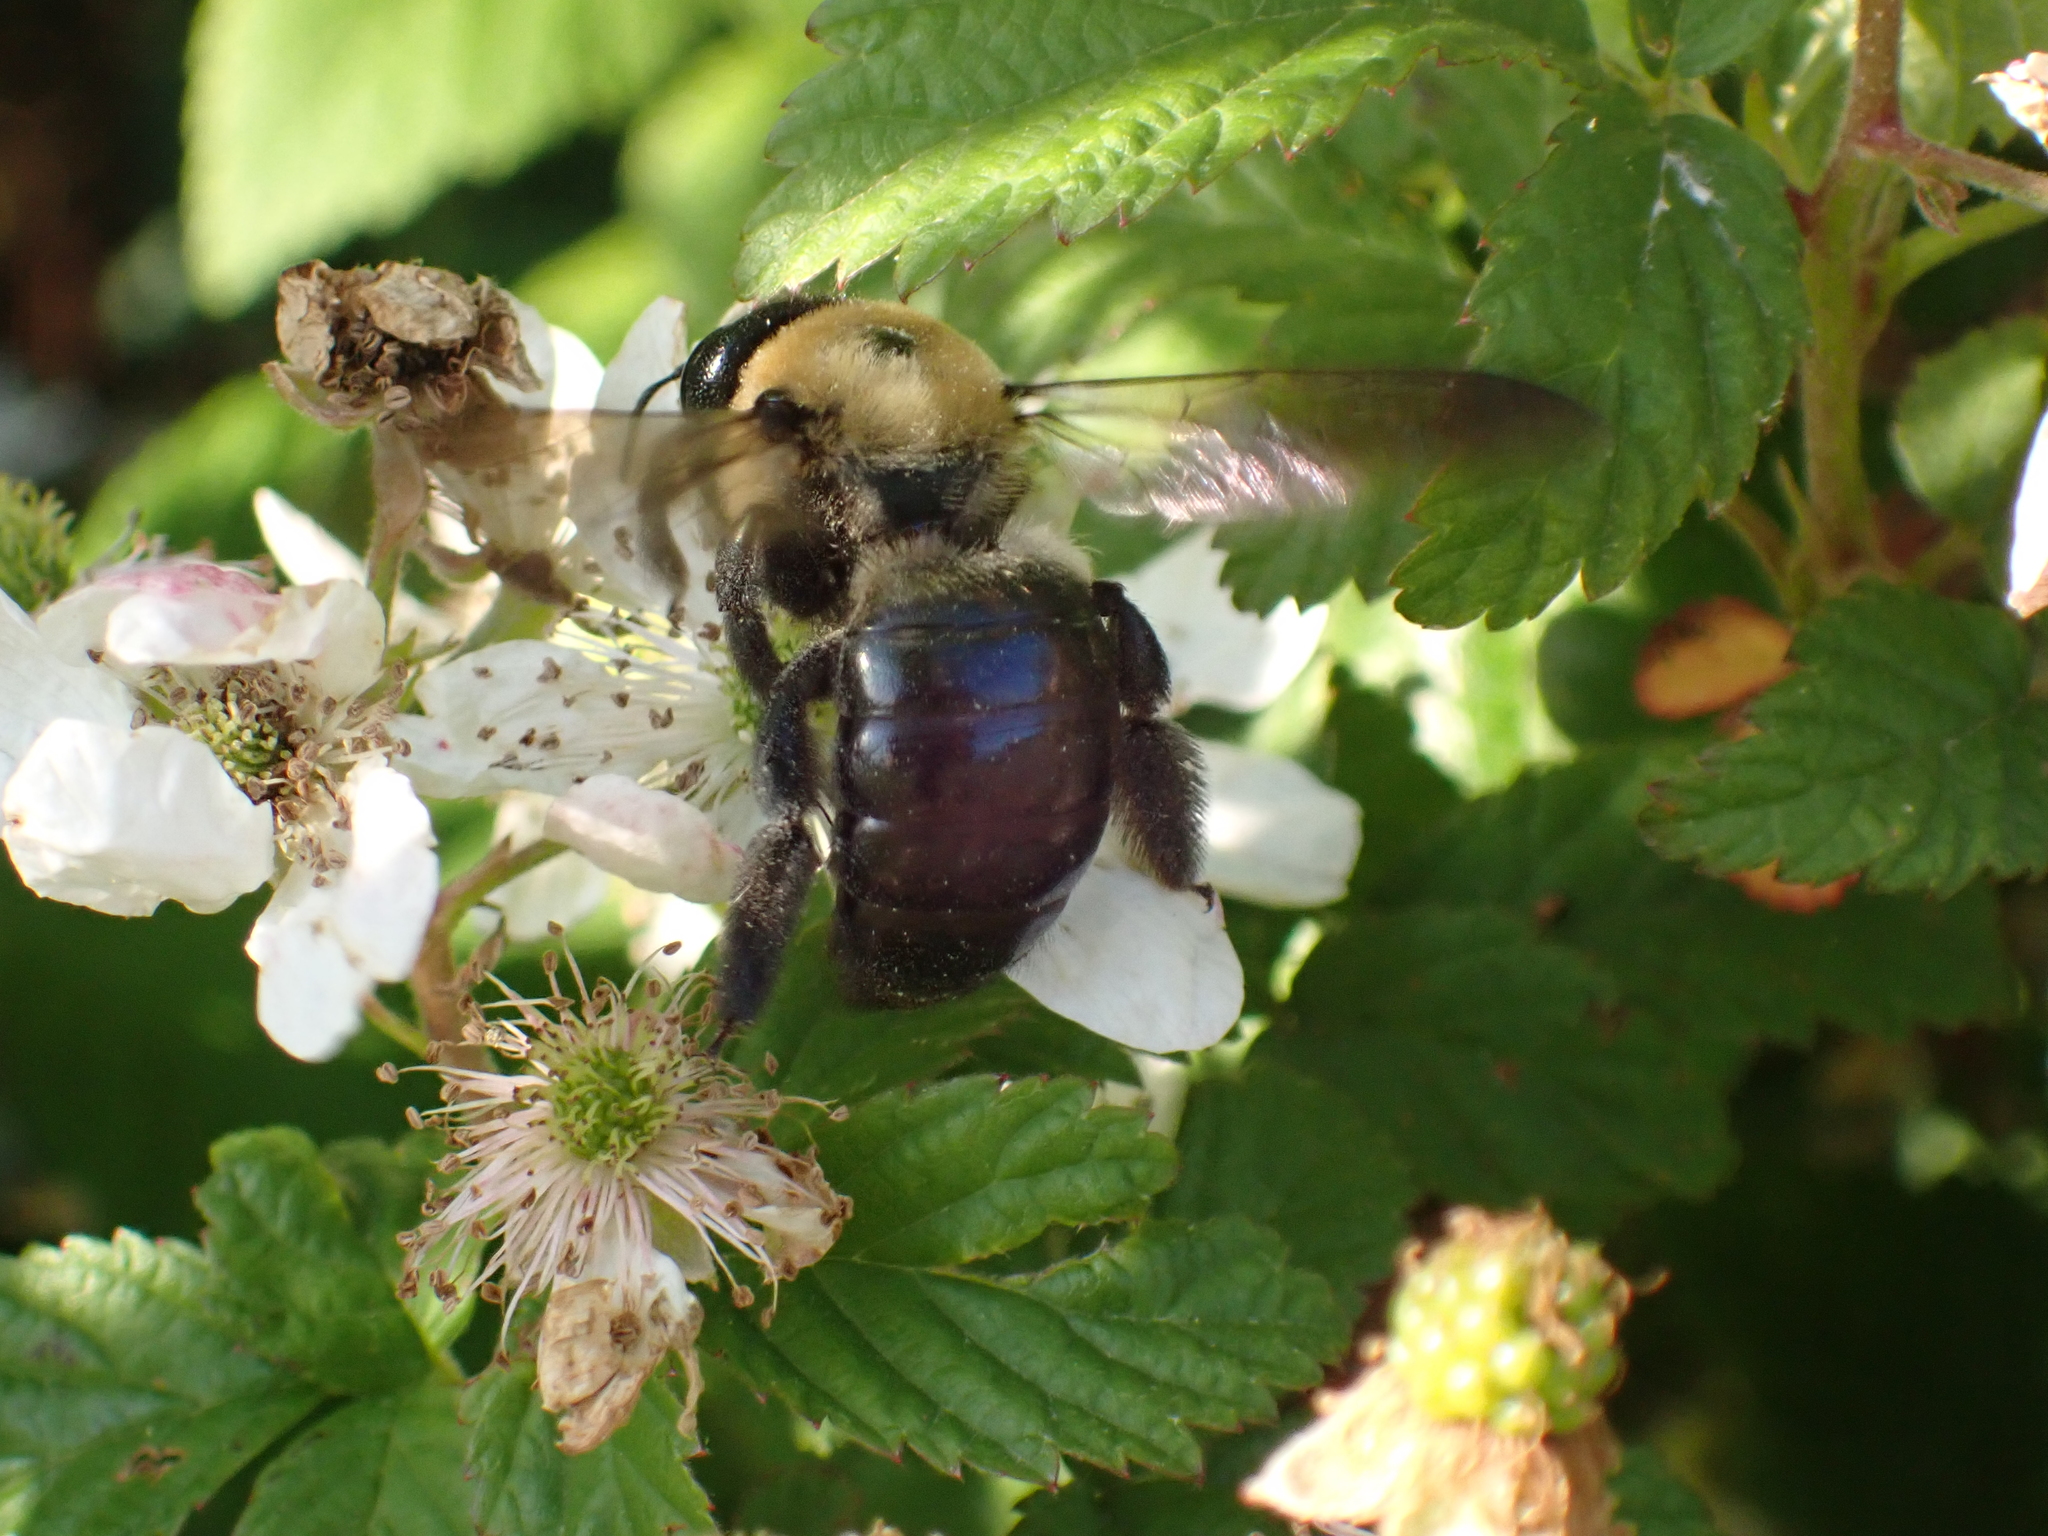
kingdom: Animalia
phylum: Arthropoda
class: Insecta
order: Hymenoptera
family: Apidae
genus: Xylocopa
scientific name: Xylocopa virginica
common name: Carpenter bee
